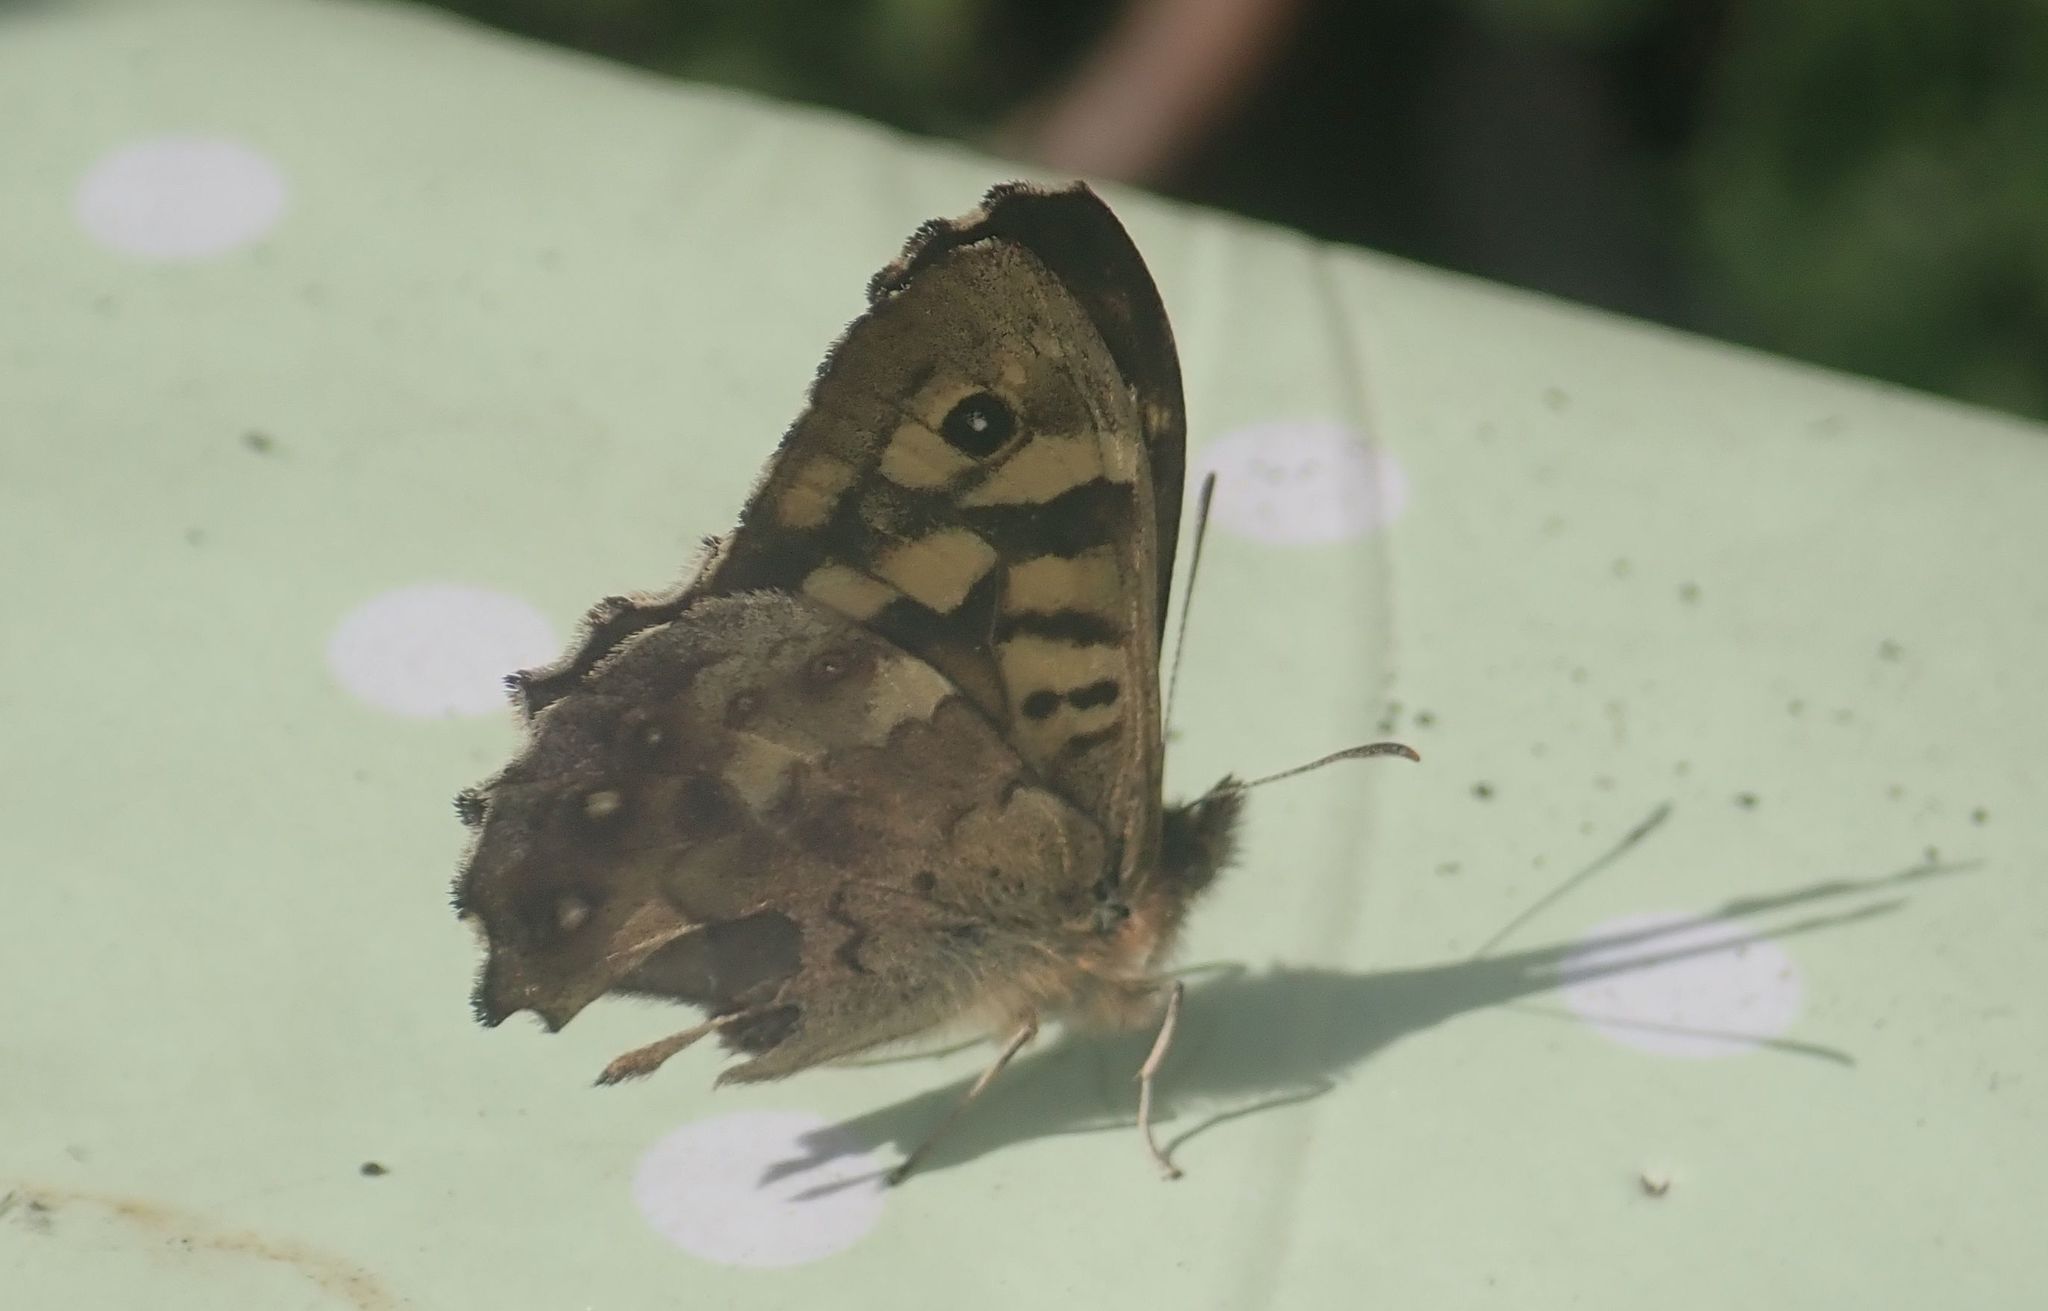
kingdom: Animalia
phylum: Arthropoda
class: Insecta
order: Lepidoptera
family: Nymphalidae
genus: Pararge
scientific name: Pararge aegeria
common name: Speckled wood
